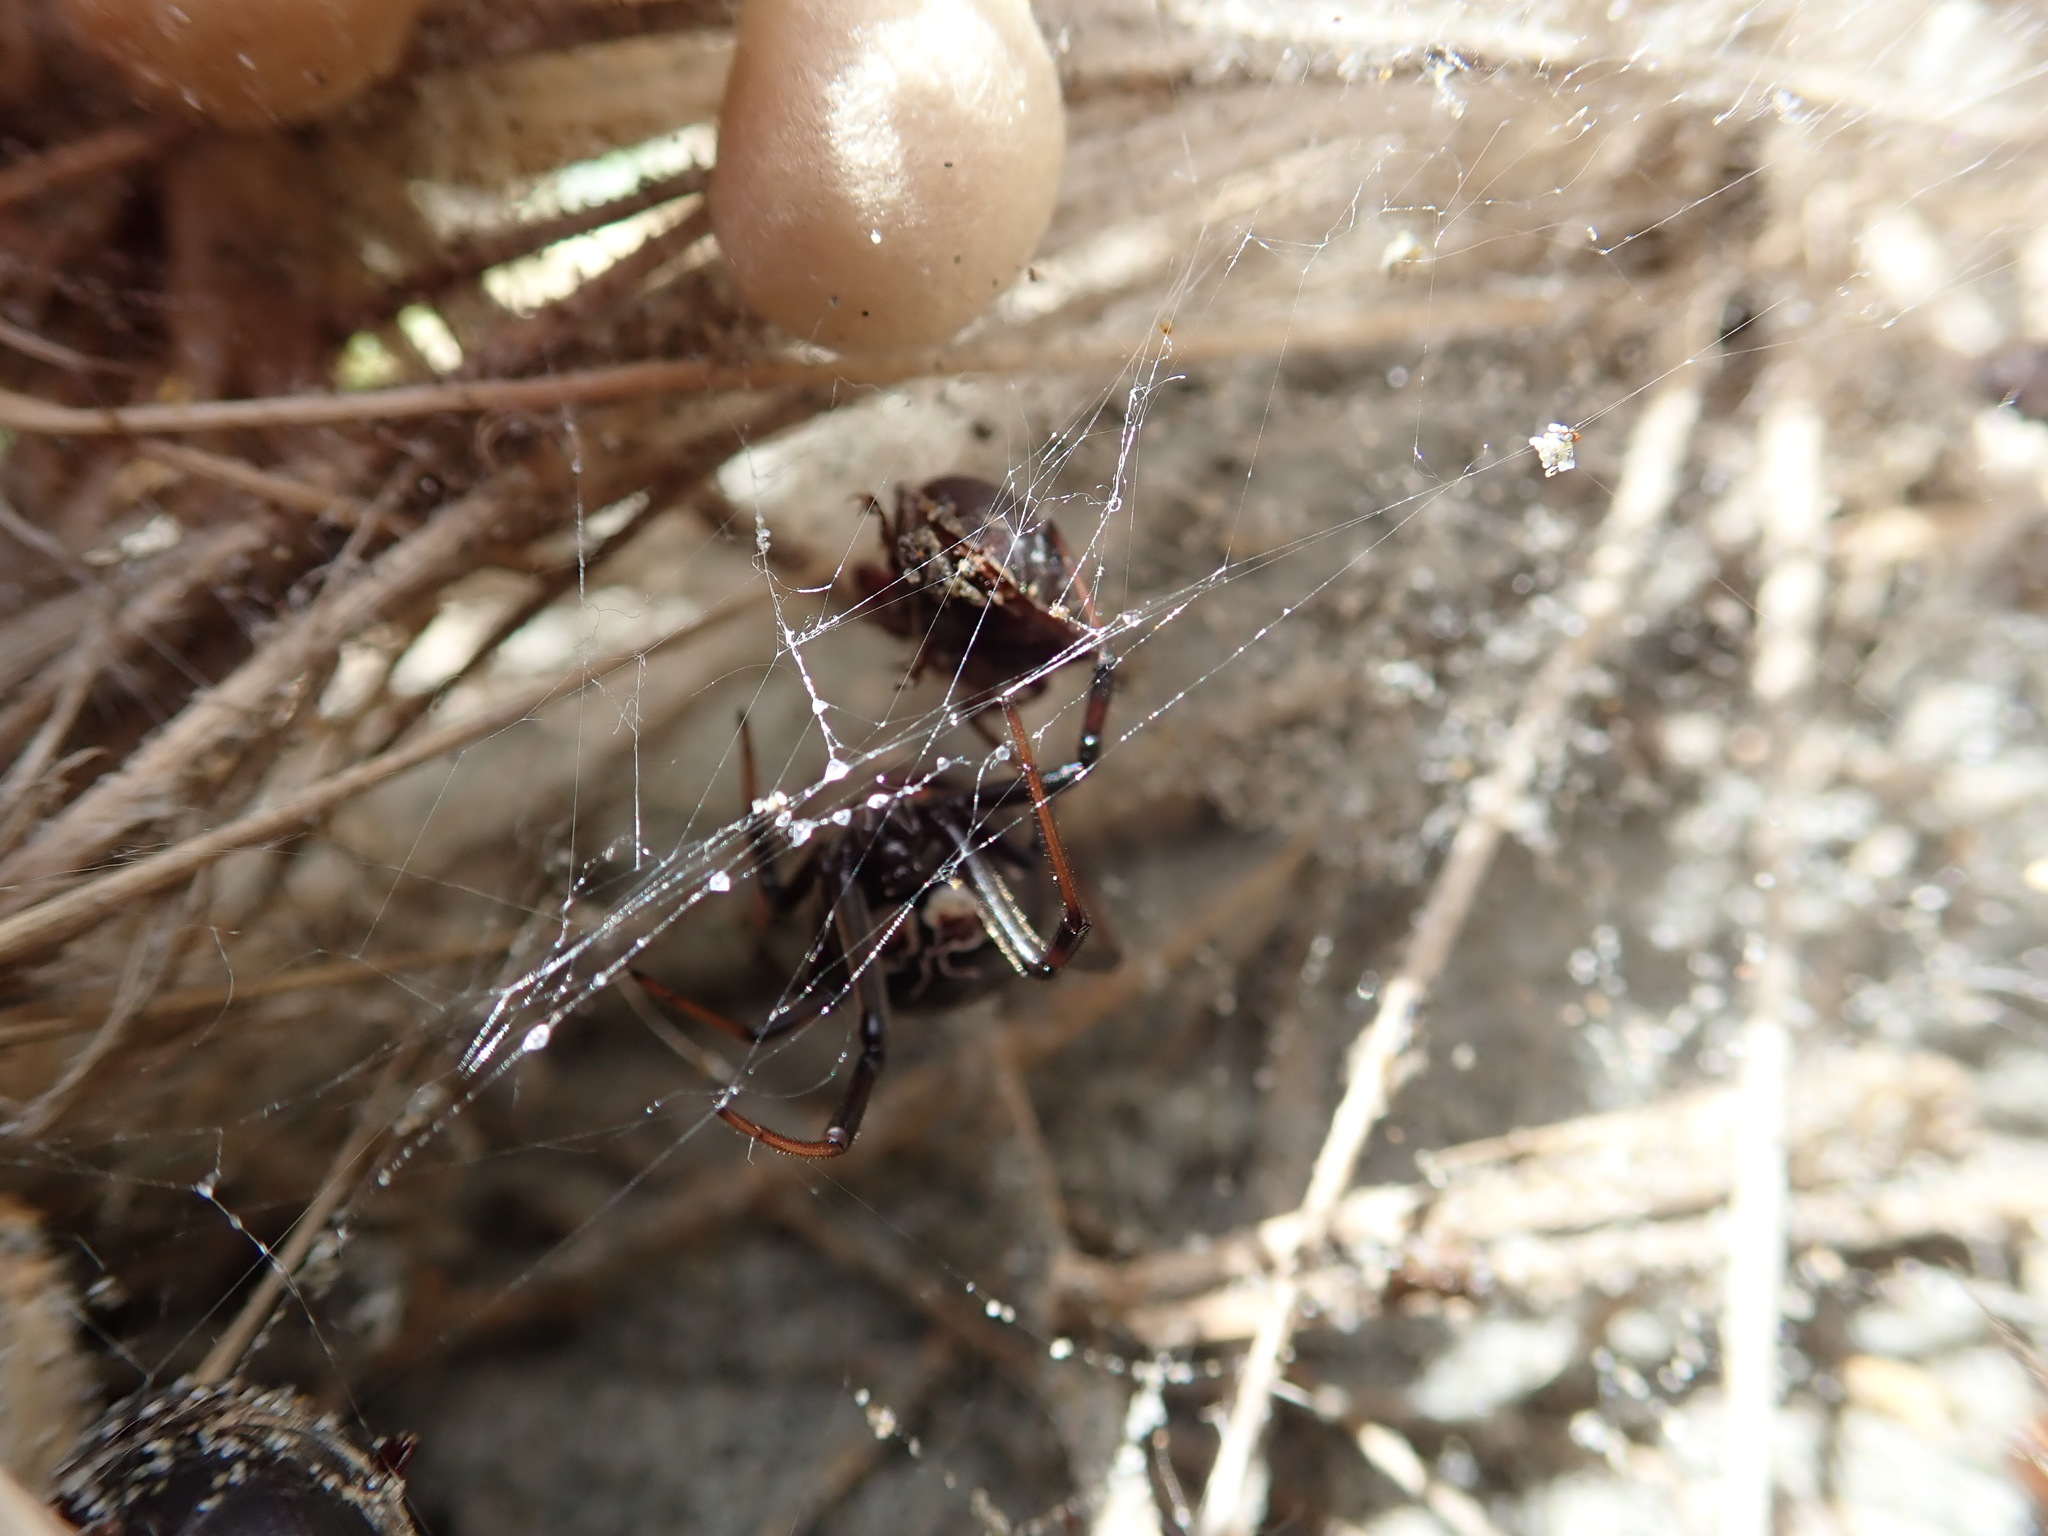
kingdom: Animalia
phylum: Arthropoda
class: Arachnida
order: Araneae
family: Theridiidae
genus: Latrodectus
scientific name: Latrodectus katipo
